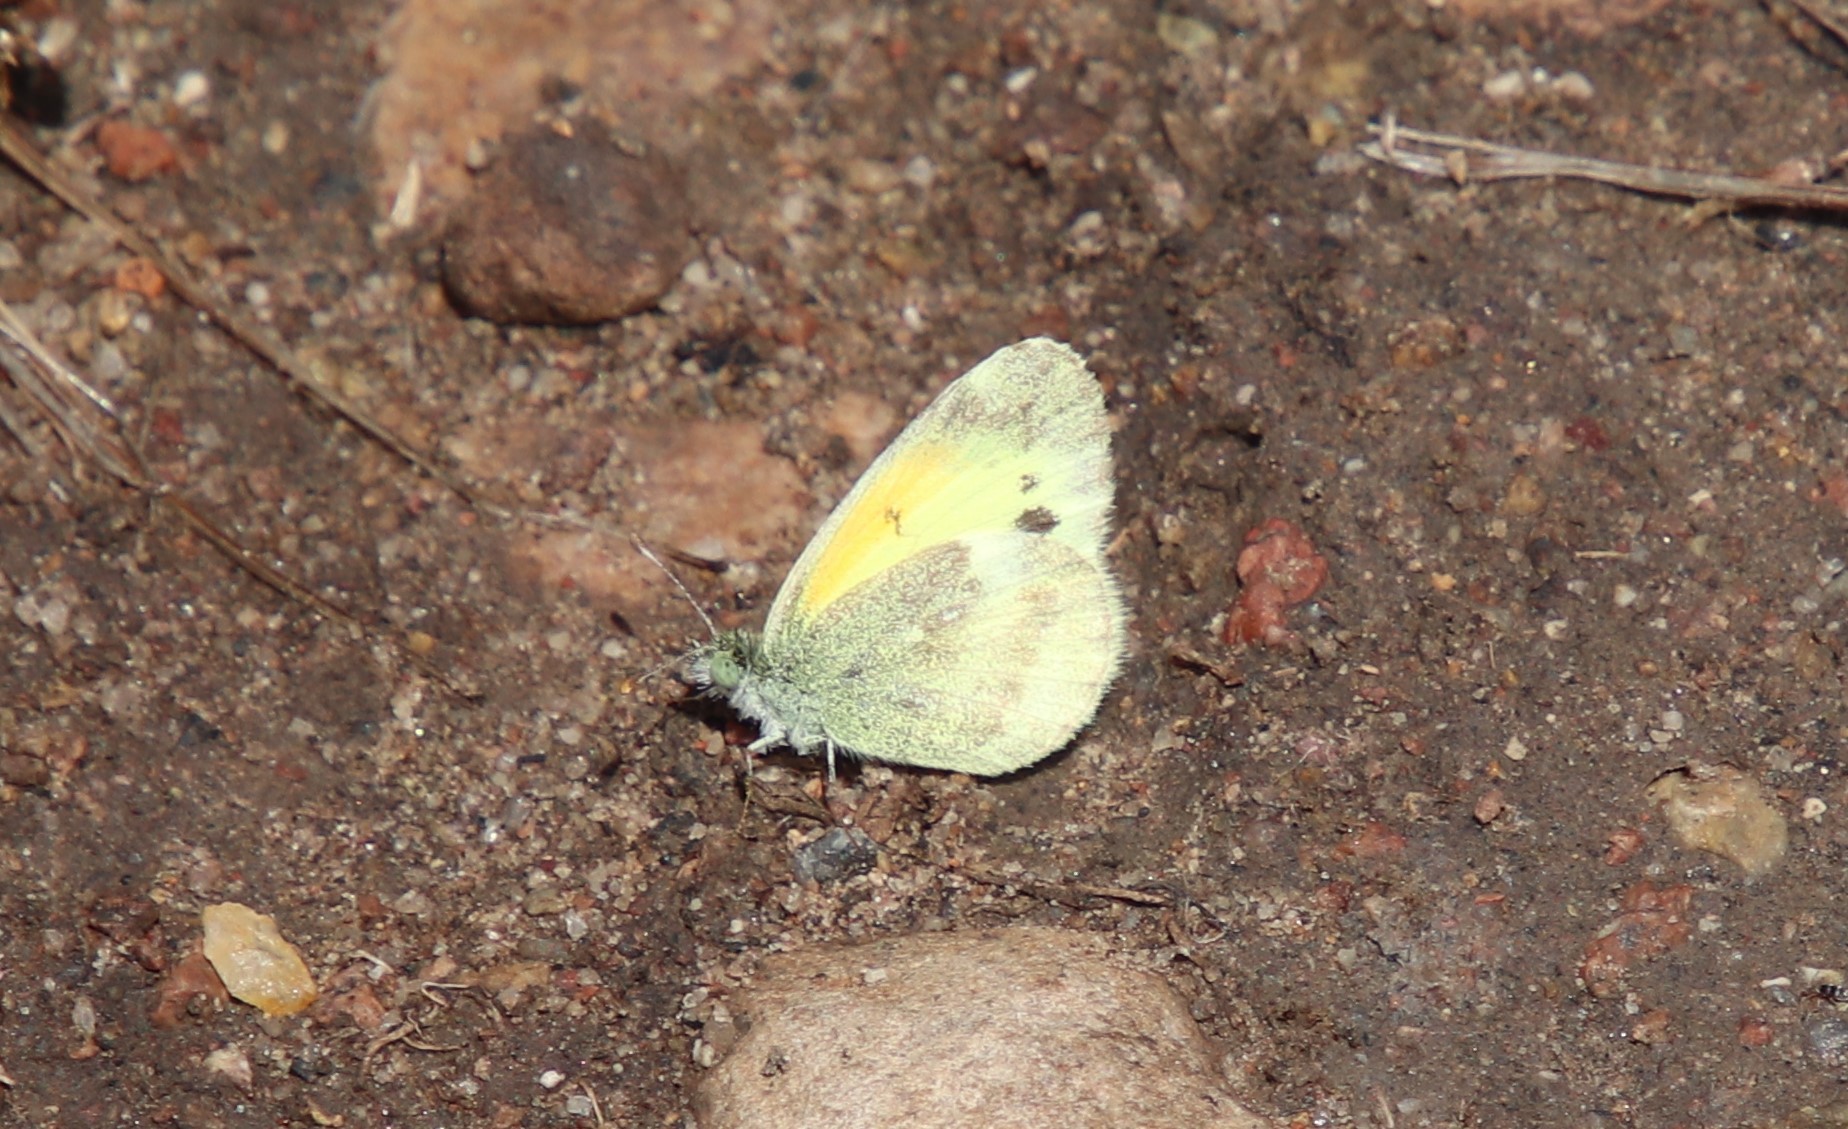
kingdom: Animalia
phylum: Arthropoda
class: Insecta
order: Lepidoptera
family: Pieridae
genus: Nathalis
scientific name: Nathalis iole
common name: Dainty sulphur
